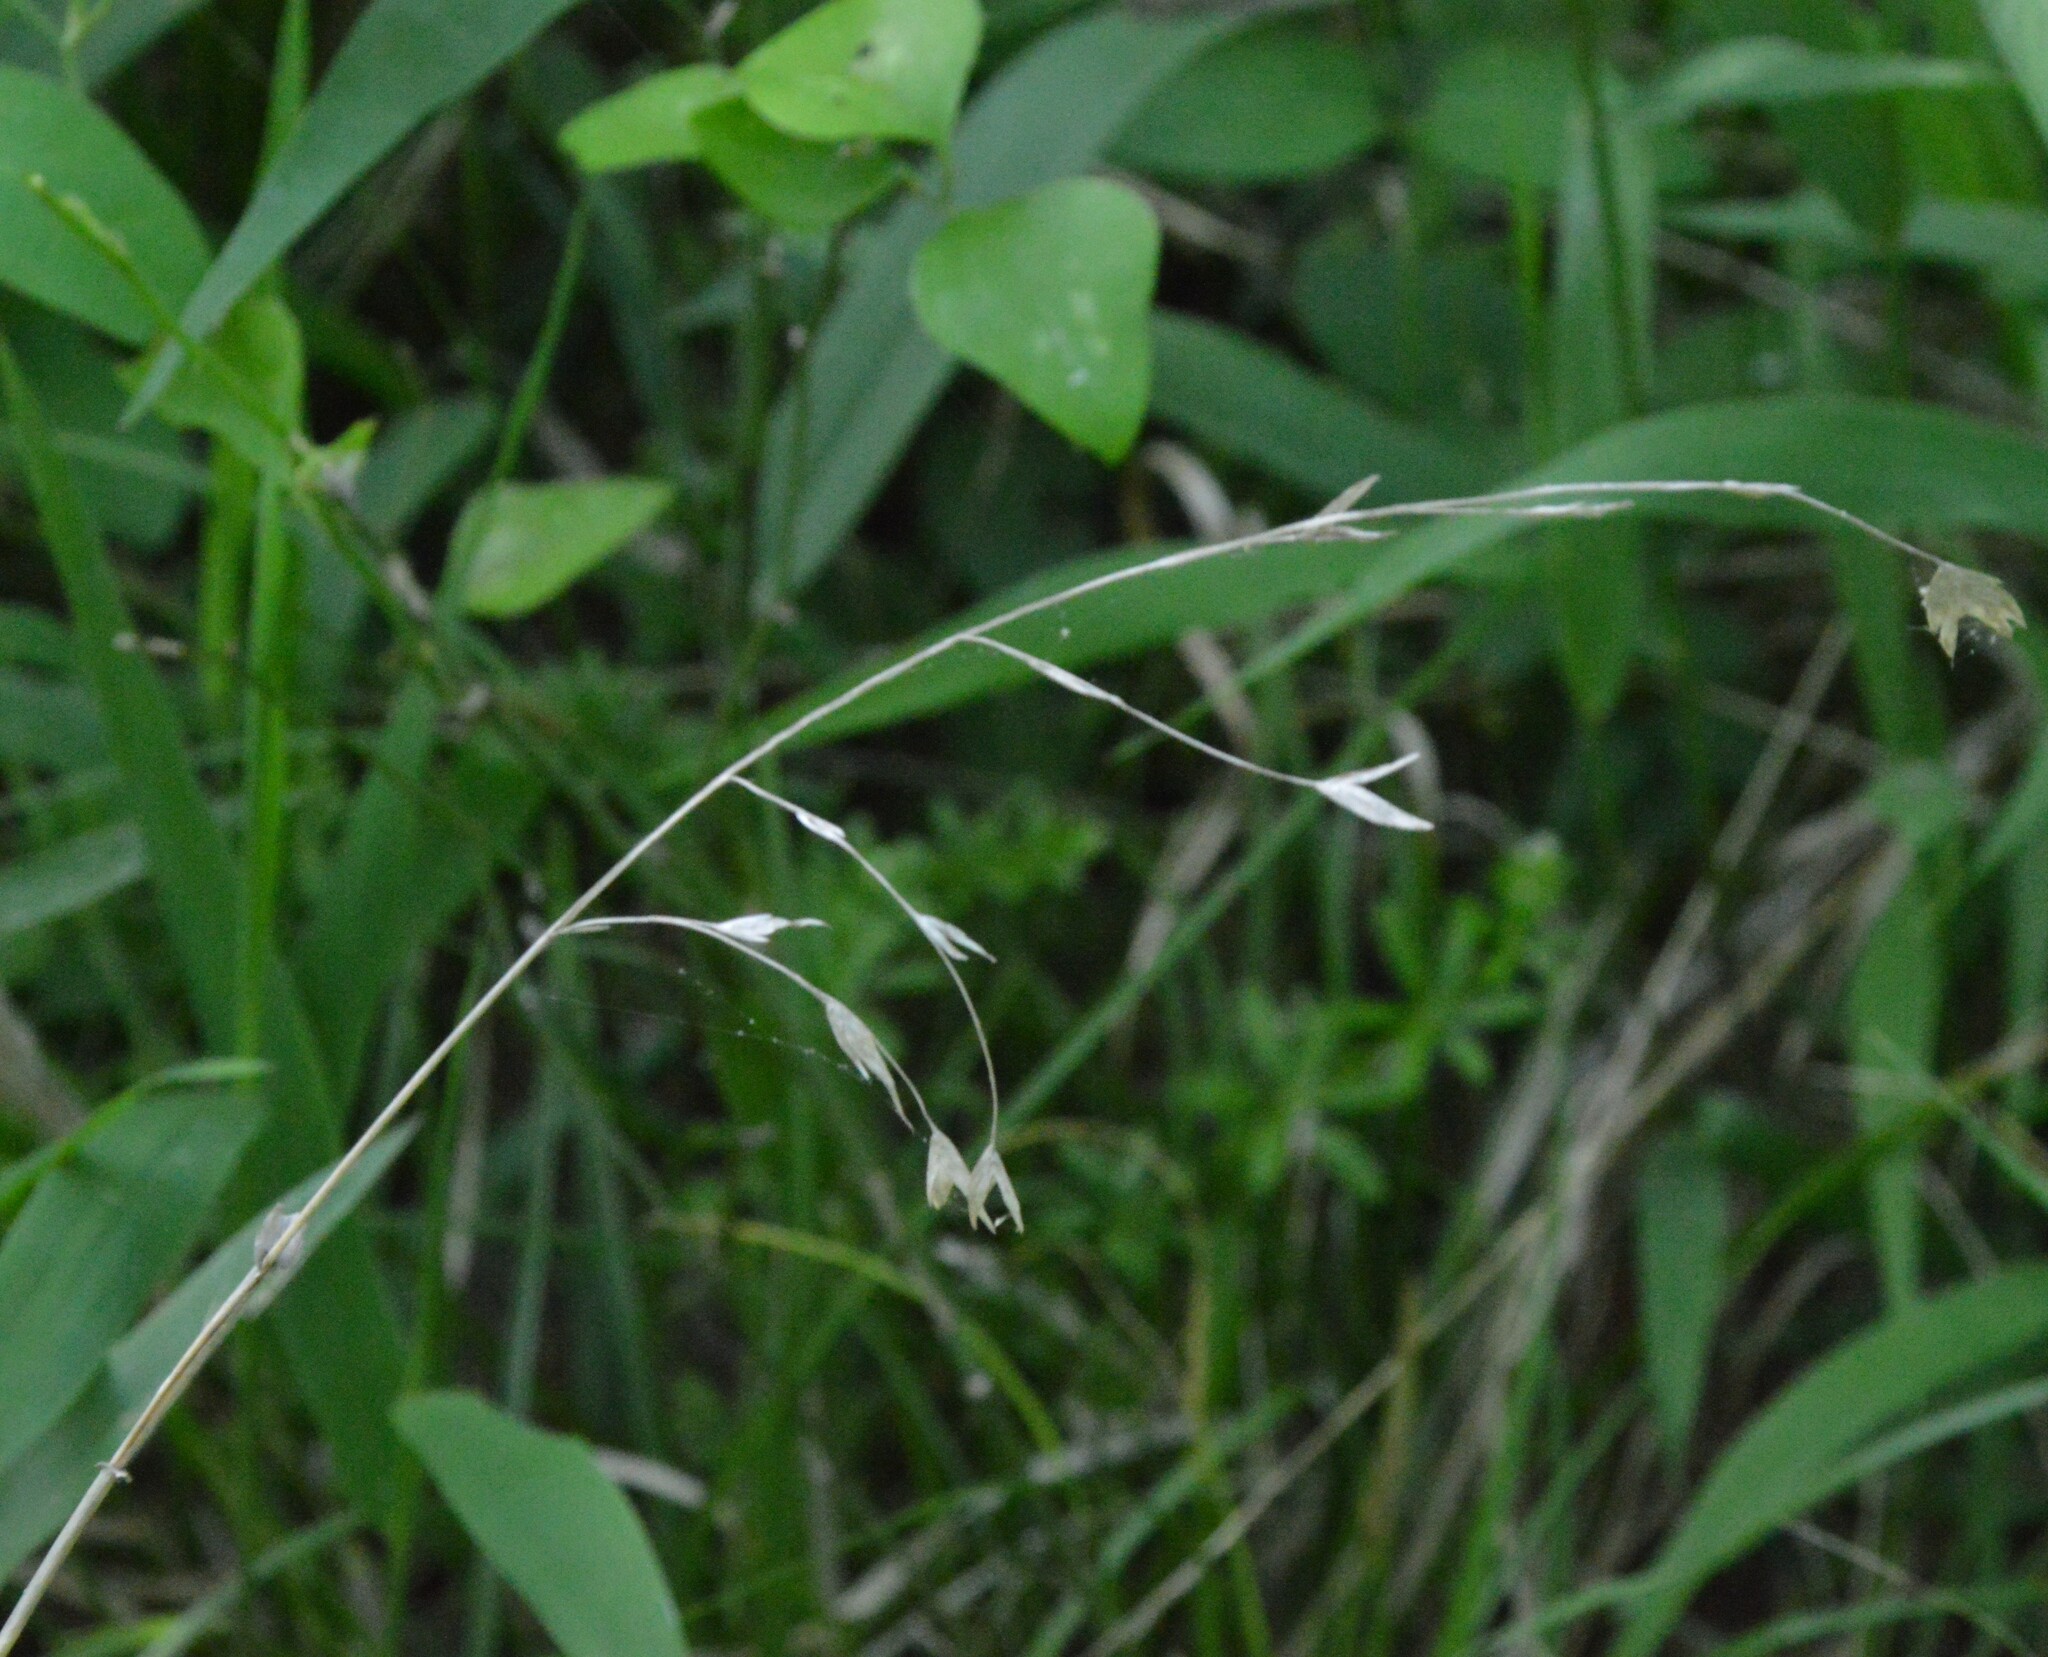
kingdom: Plantae
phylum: Tracheophyta
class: Liliopsida
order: Poales
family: Poaceae
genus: Chasmanthium
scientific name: Chasmanthium latifolium
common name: Broad-leaved chasmanthium
